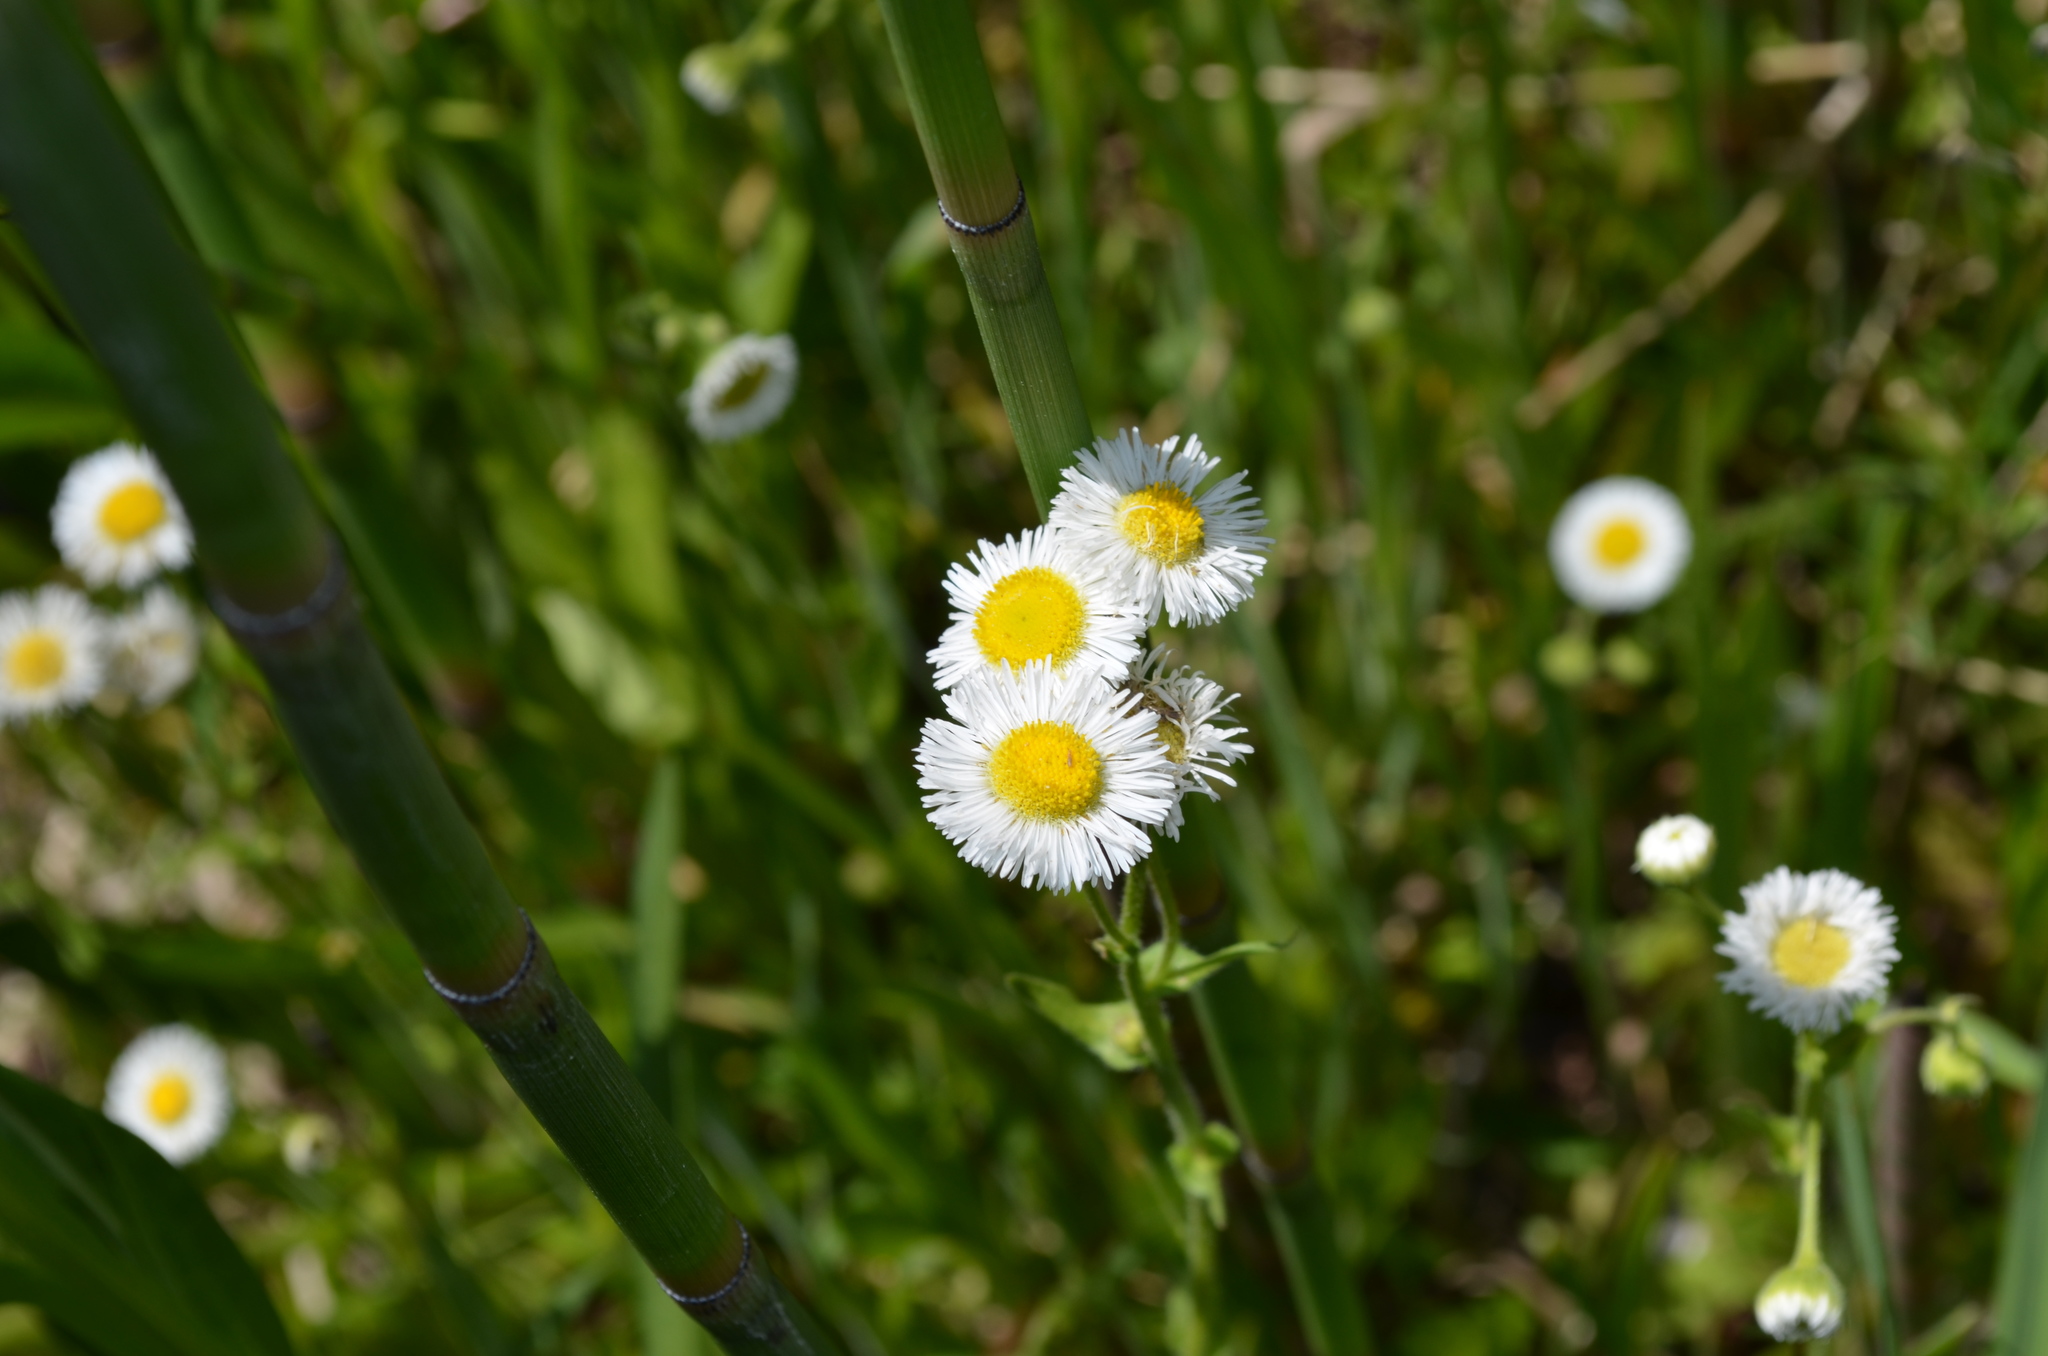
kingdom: Plantae
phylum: Tracheophyta
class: Magnoliopsida
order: Asterales
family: Asteraceae
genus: Erigeron
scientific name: Erigeron philadelphicus
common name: Robin's-plantain
